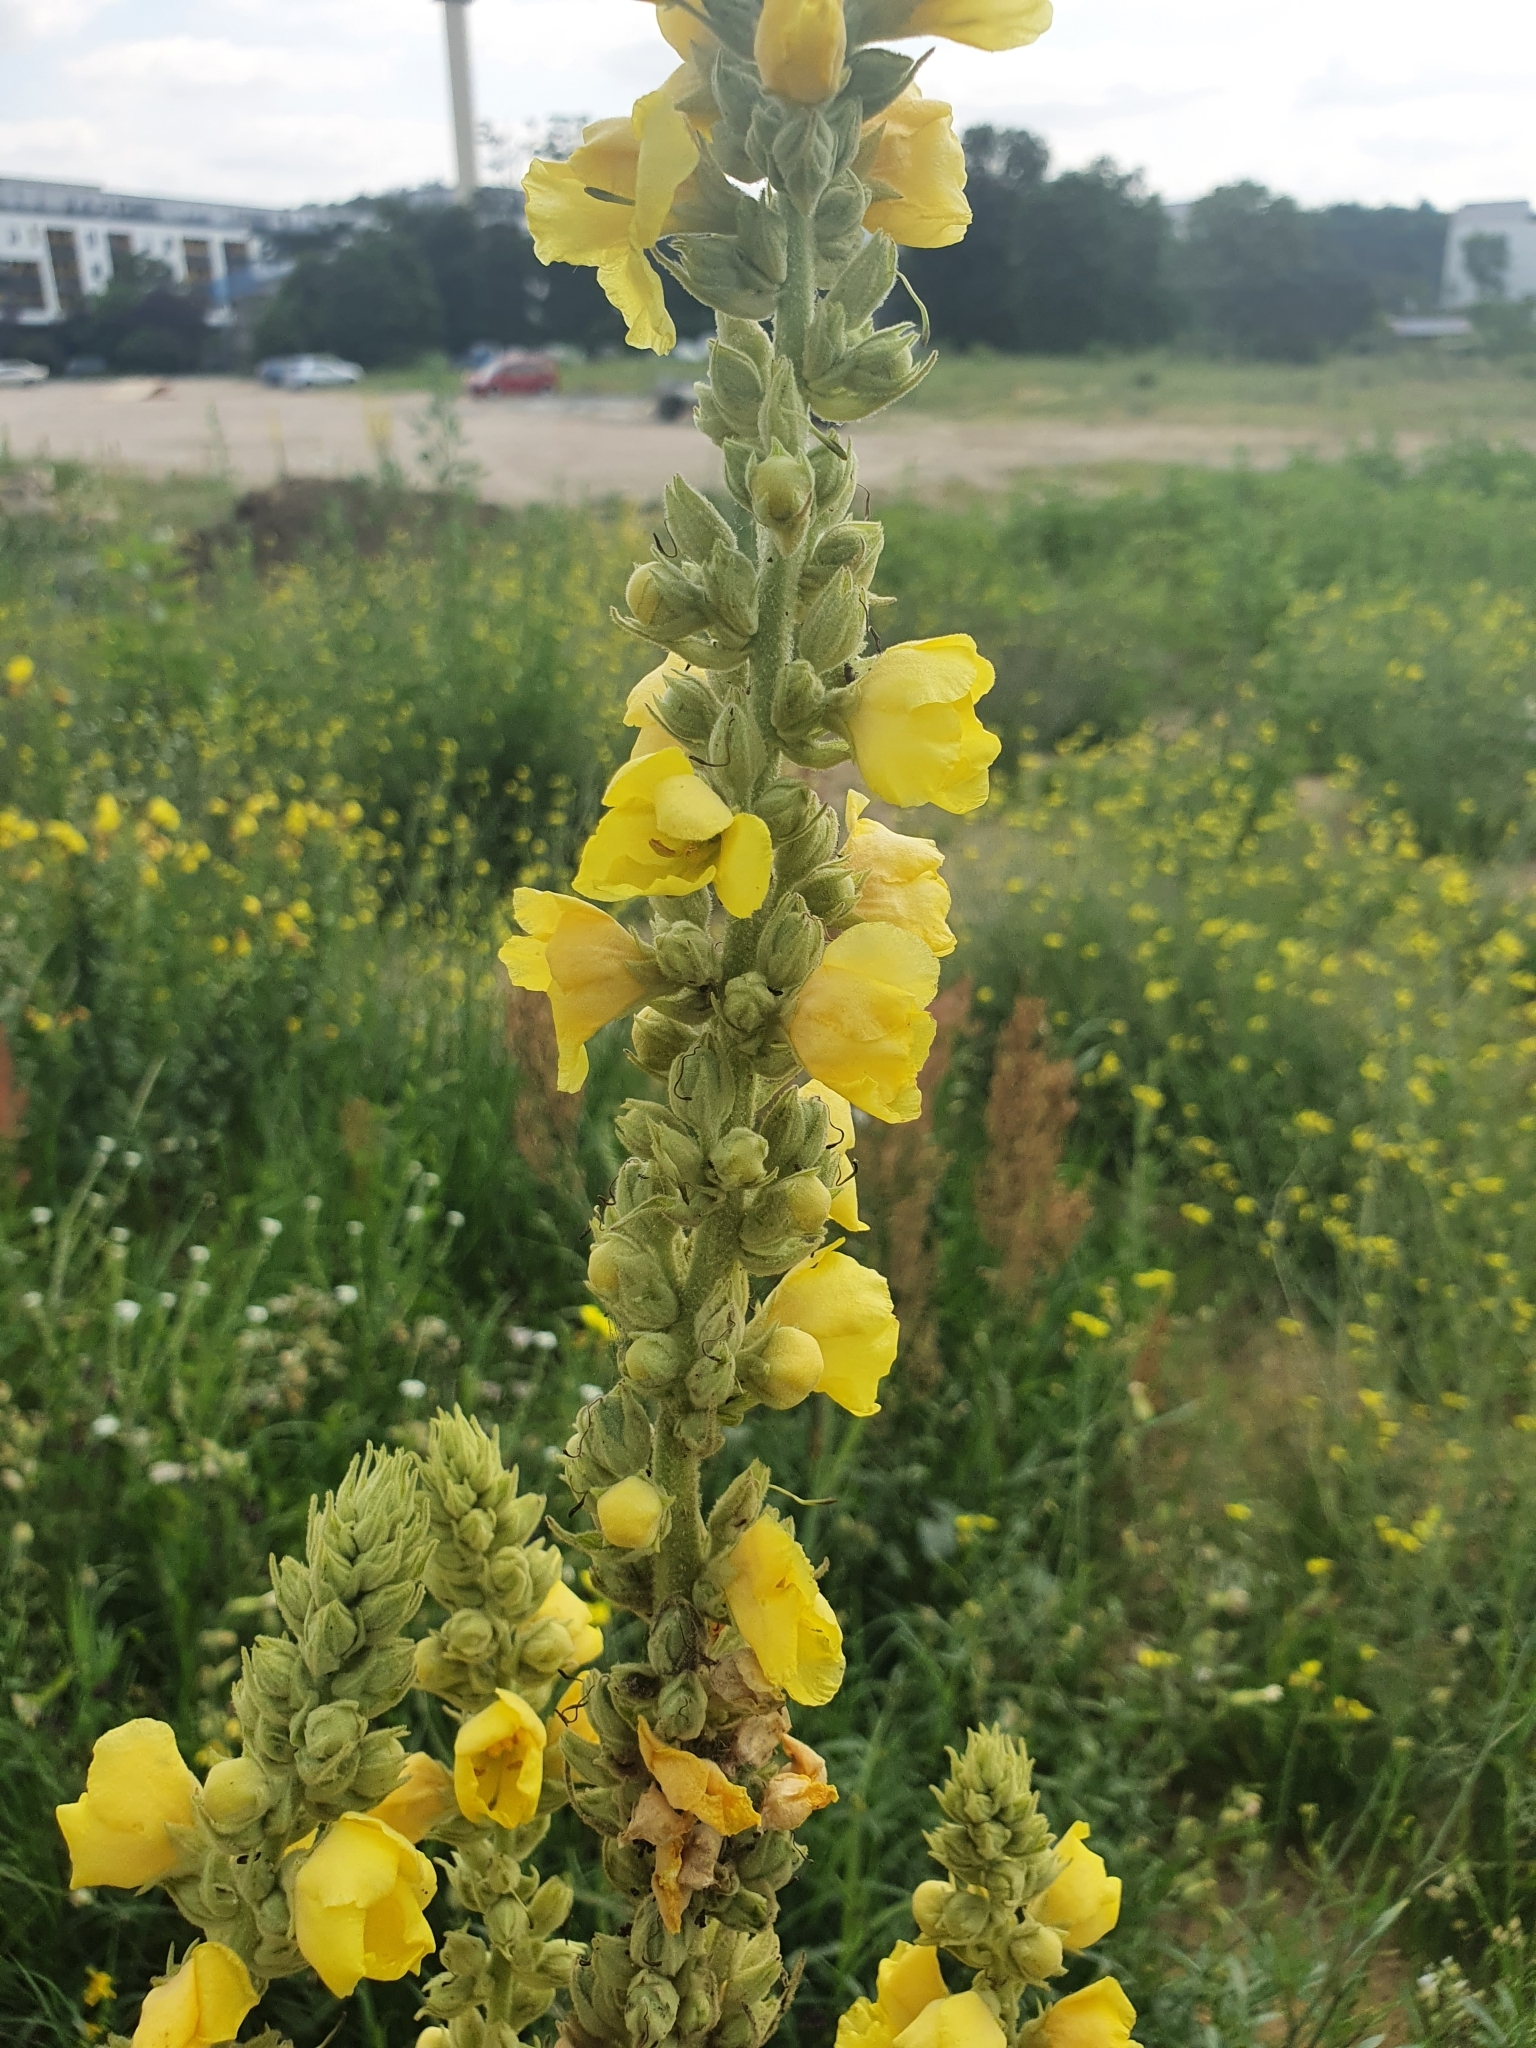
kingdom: Plantae
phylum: Tracheophyta
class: Magnoliopsida
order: Lamiales
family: Scrophulariaceae
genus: Verbascum
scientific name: Verbascum densiflorum
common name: Dense-flowered mullein
